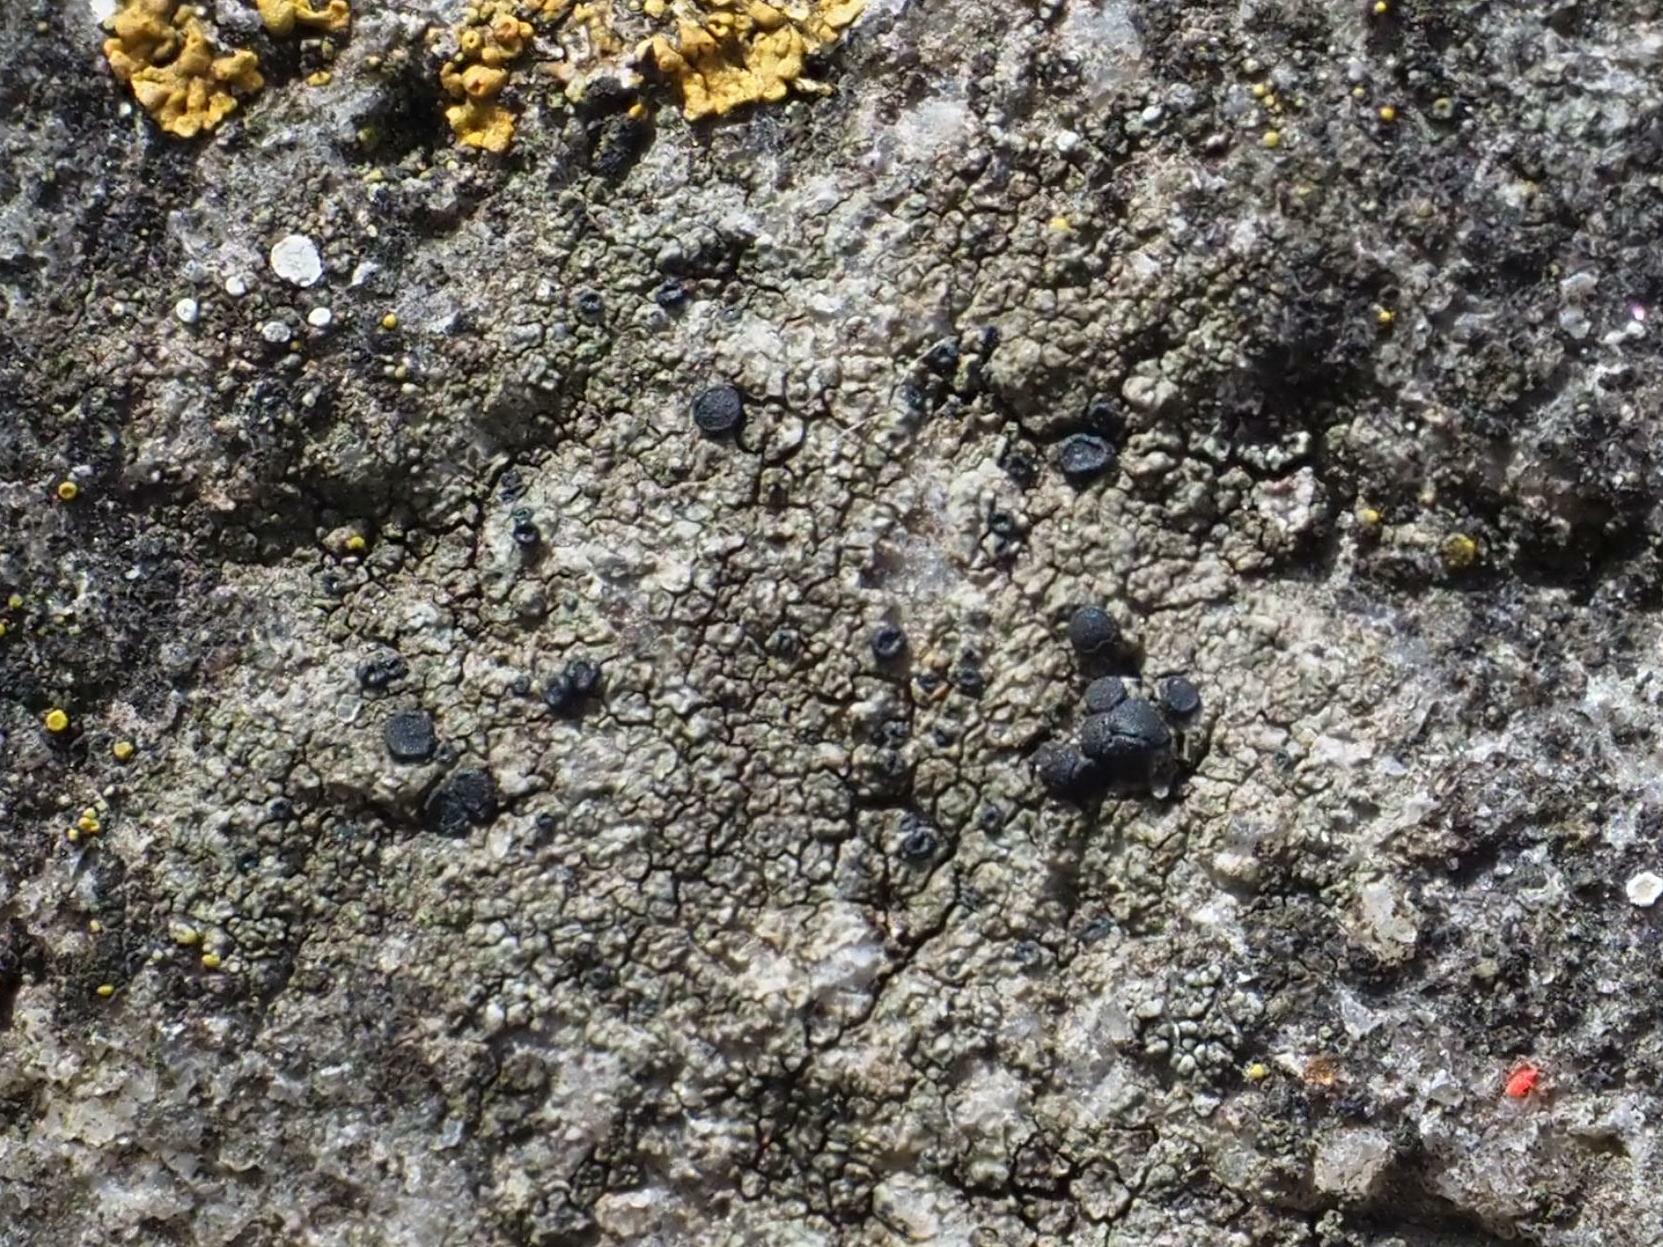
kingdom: Fungi
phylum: Ascomycota
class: Lecanoromycetes
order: Lecanorales
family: Lecanoraceae
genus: Lecidella
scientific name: Lecidella stigmatea
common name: Limestone disc lichen
